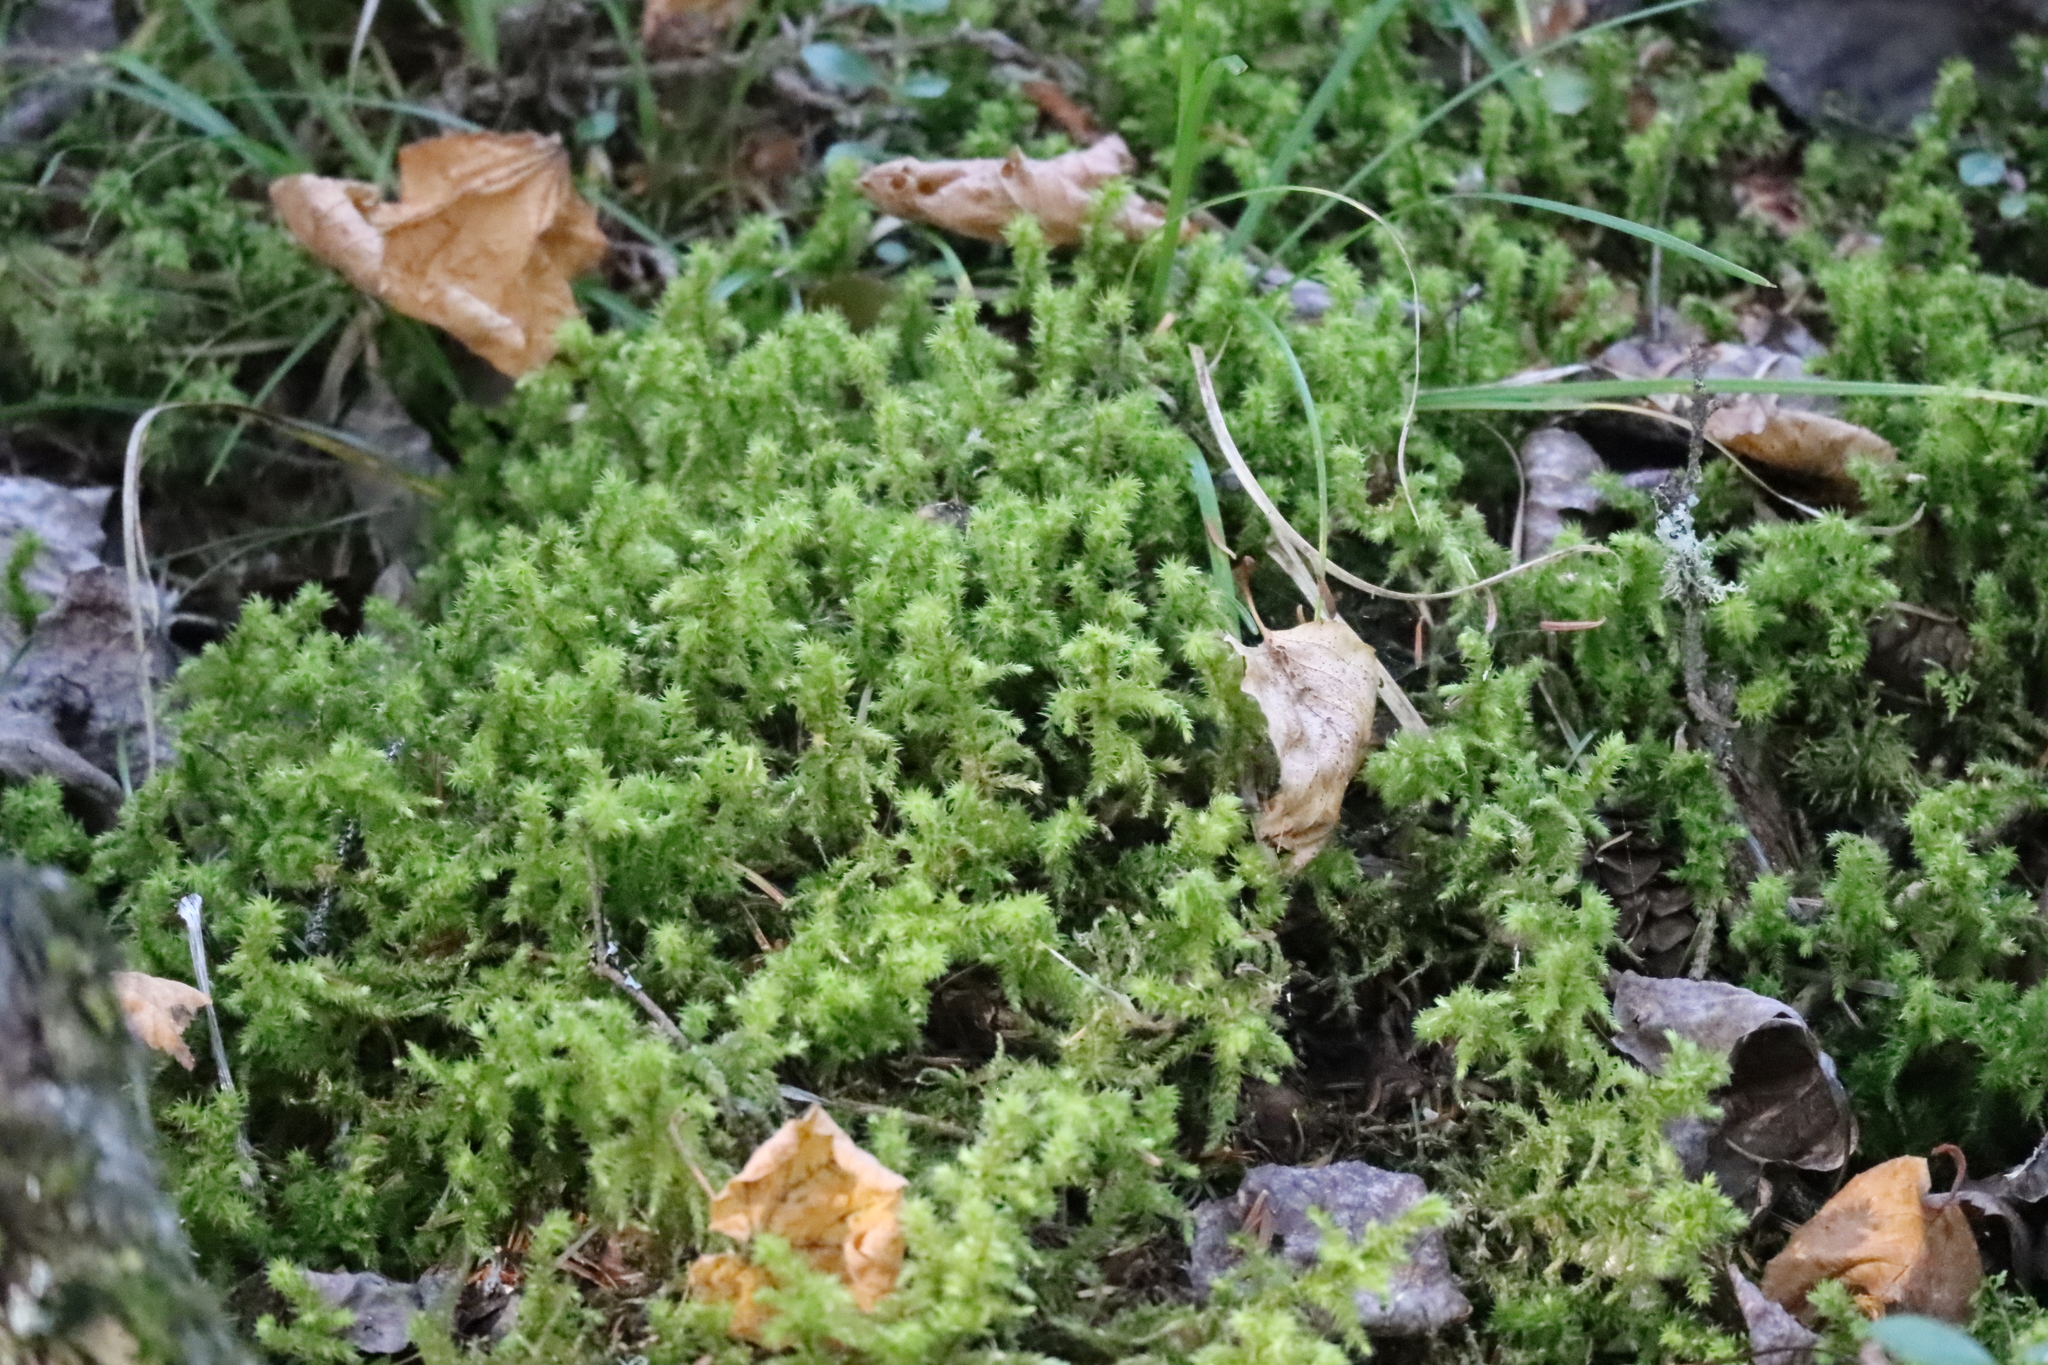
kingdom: Plantae
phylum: Bryophyta
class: Bryopsida
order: Hypnales
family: Hylocomiaceae
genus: Hylocomiadelphus
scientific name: Hylocomiadelphus triquetrus
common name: Rough goose neck moss
